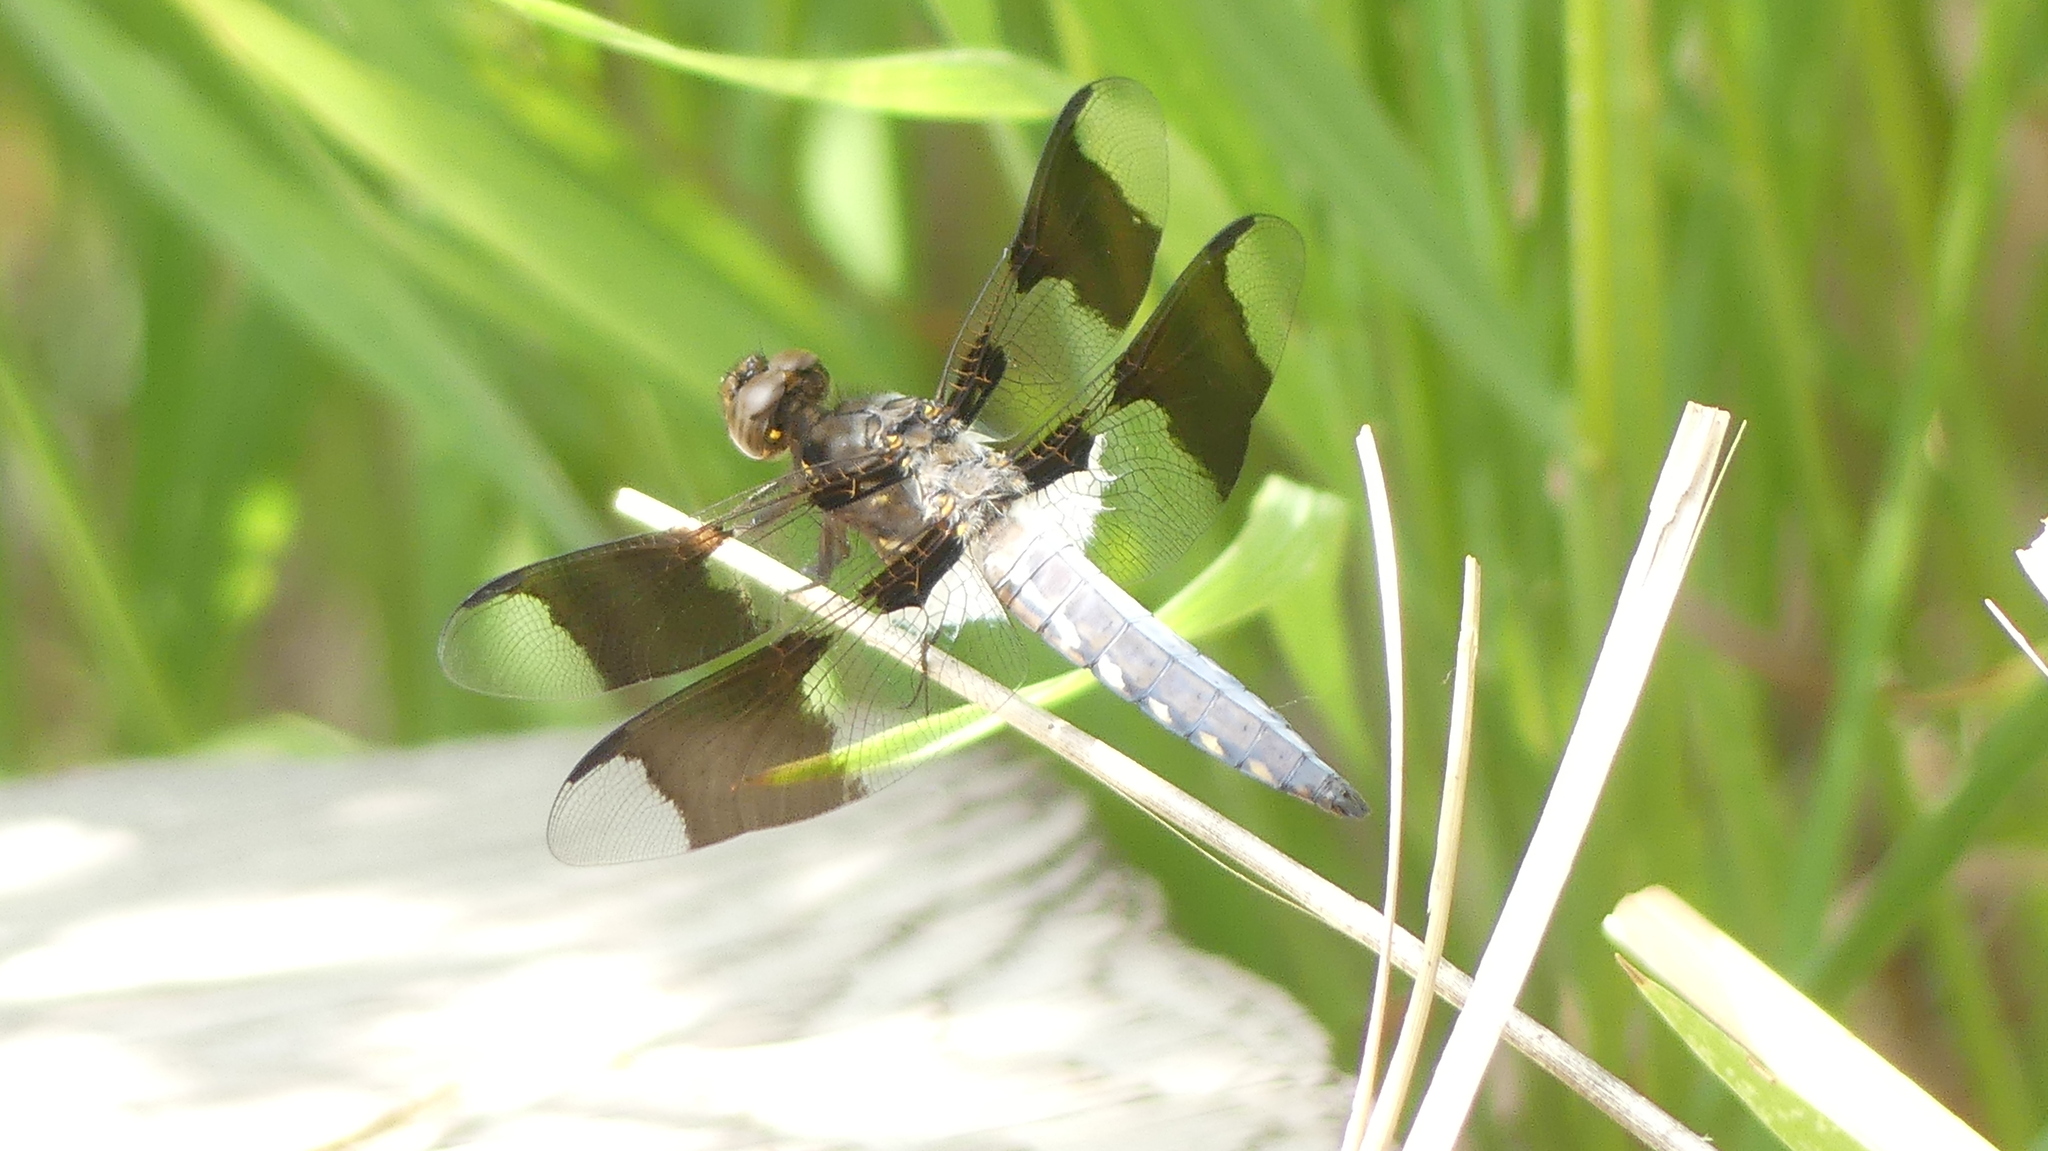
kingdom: Animalia
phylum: Arthropoda
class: Insecta
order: Odonata
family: Libellulidae
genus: Plathemis
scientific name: Plathemis lydia
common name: Common whitetail
